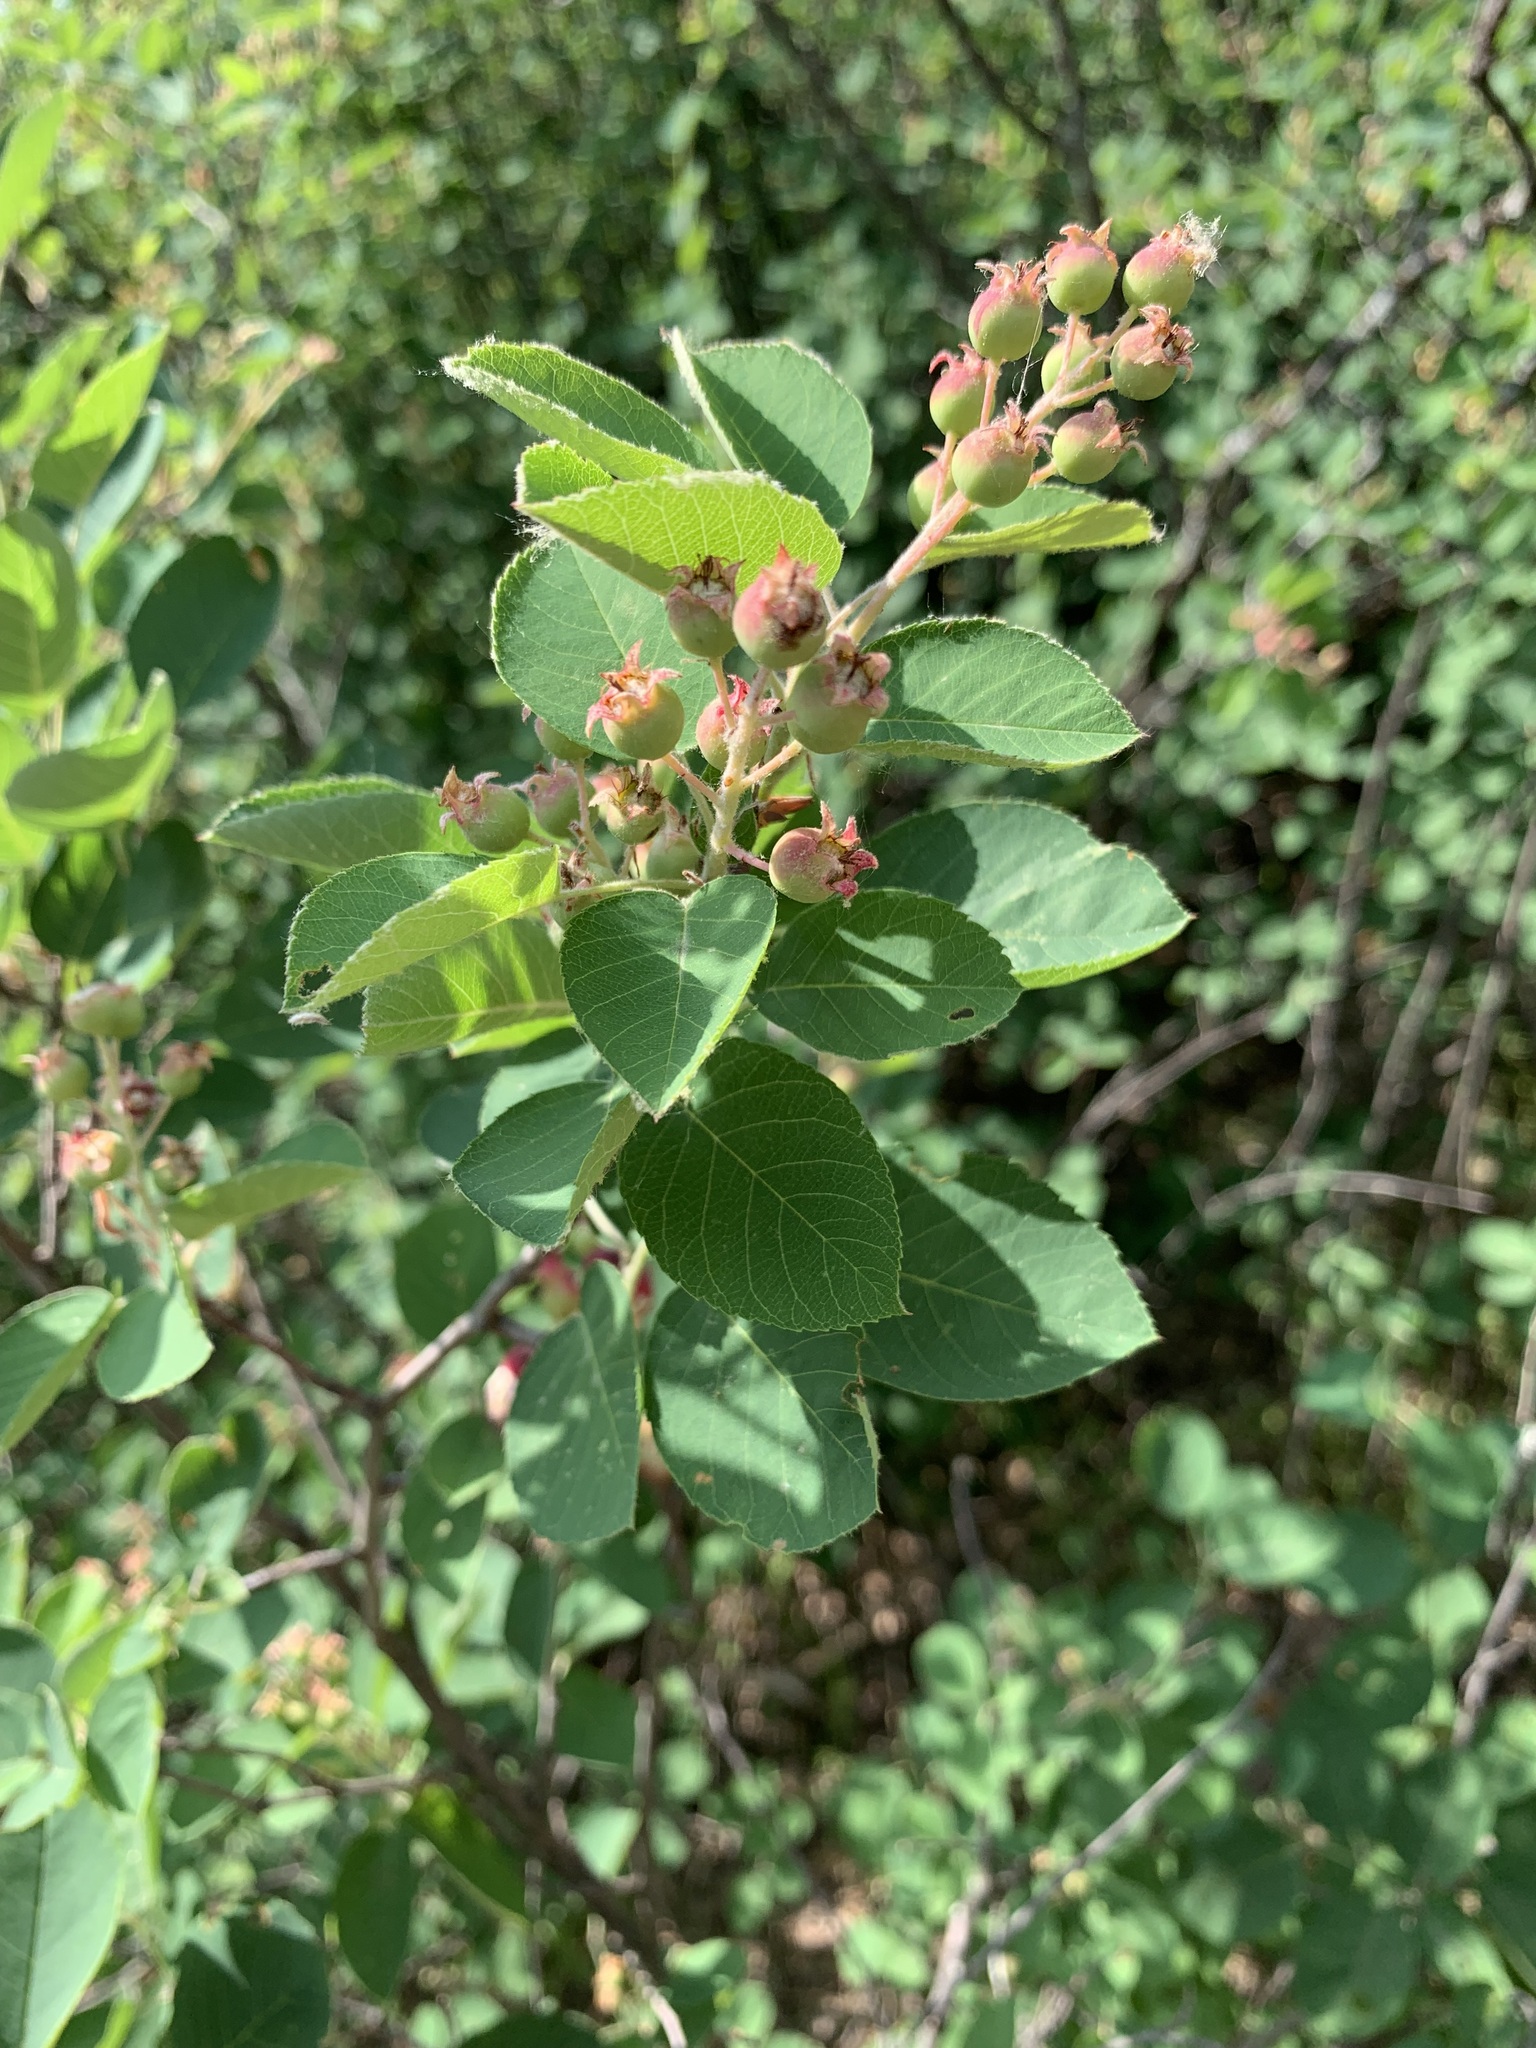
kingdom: Plantae
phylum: Tracheophyta
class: Magnoliopsida
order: Rosales
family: Rosaceae
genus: Amelanchier
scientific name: Amelanchier
